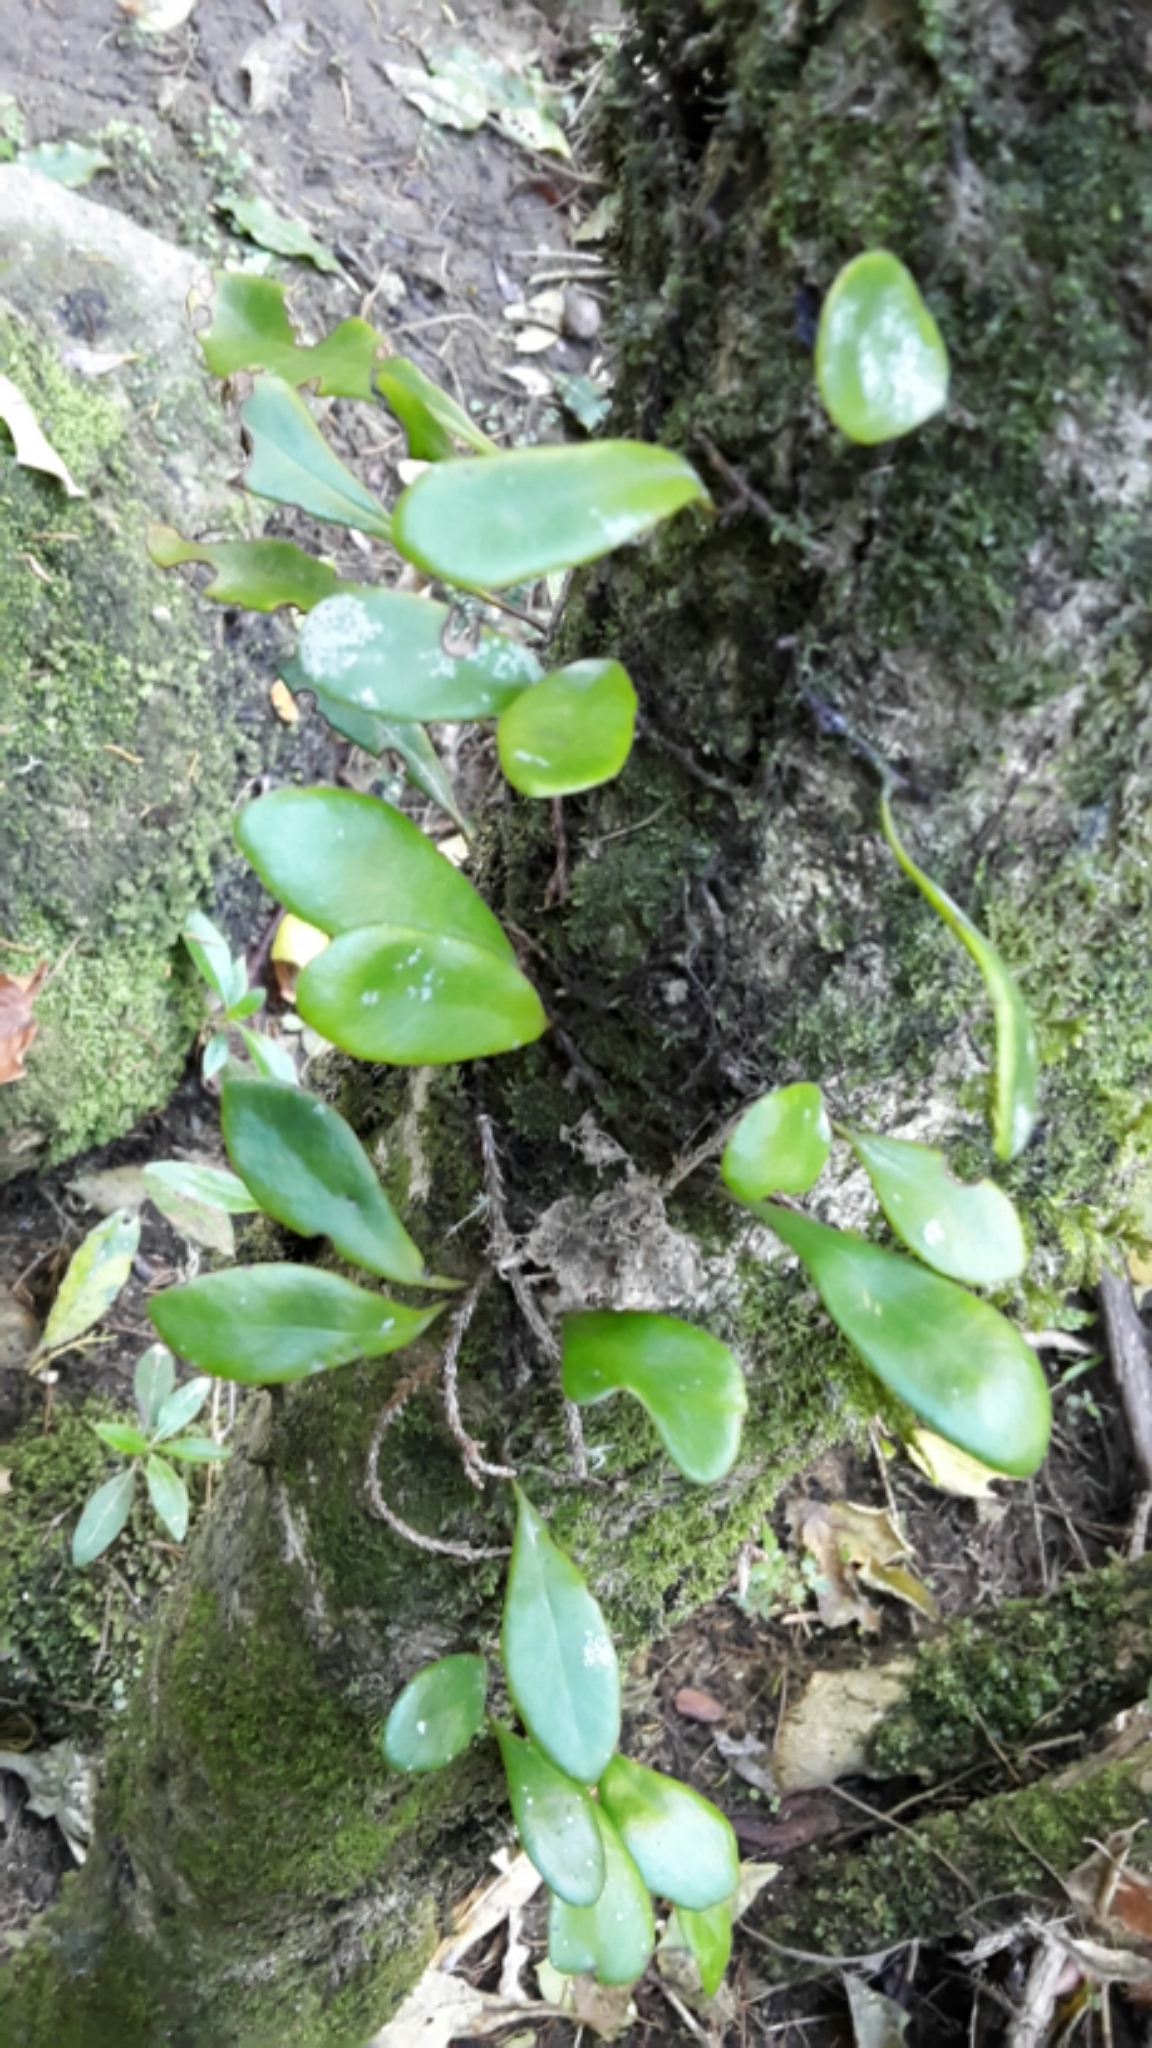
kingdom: Plantae
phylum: Tracheophyta
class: Polypodiopsida
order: Polypodiales
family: Polypodiaceae
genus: Pyrrosia
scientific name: Pyrrosia eleagnifolia
